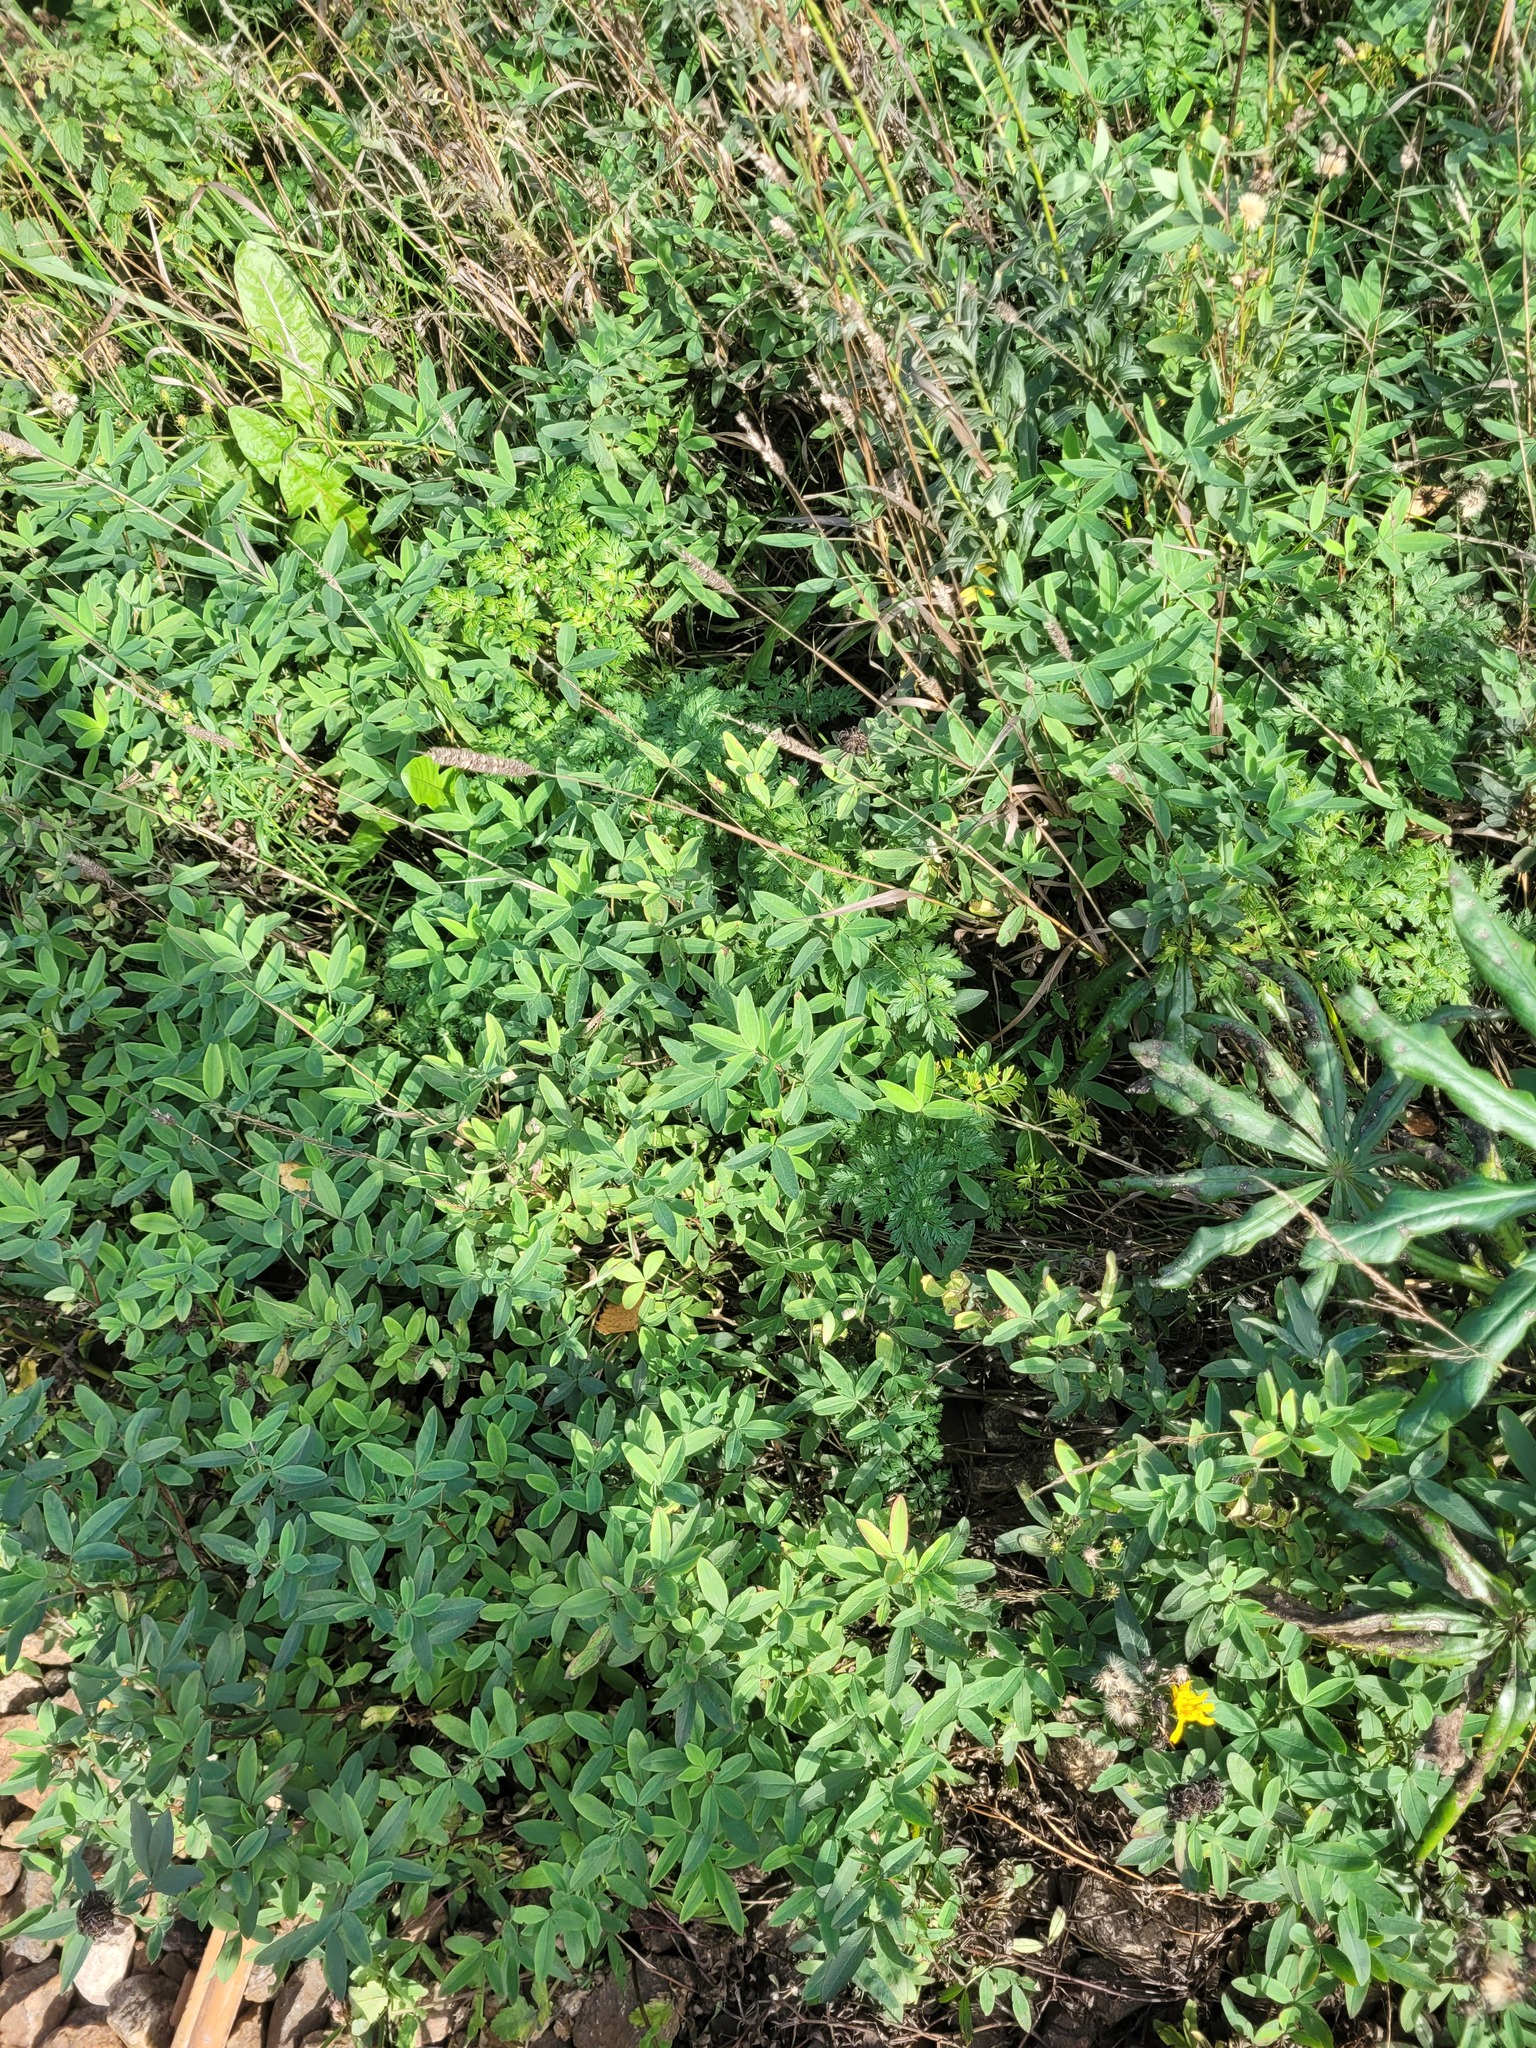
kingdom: Plantae
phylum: Tracheophyta
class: Magnoliopsida
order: Fabales
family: Fabaceae
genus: Trifolium
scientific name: Trifolium medium
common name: Zigzag clover
